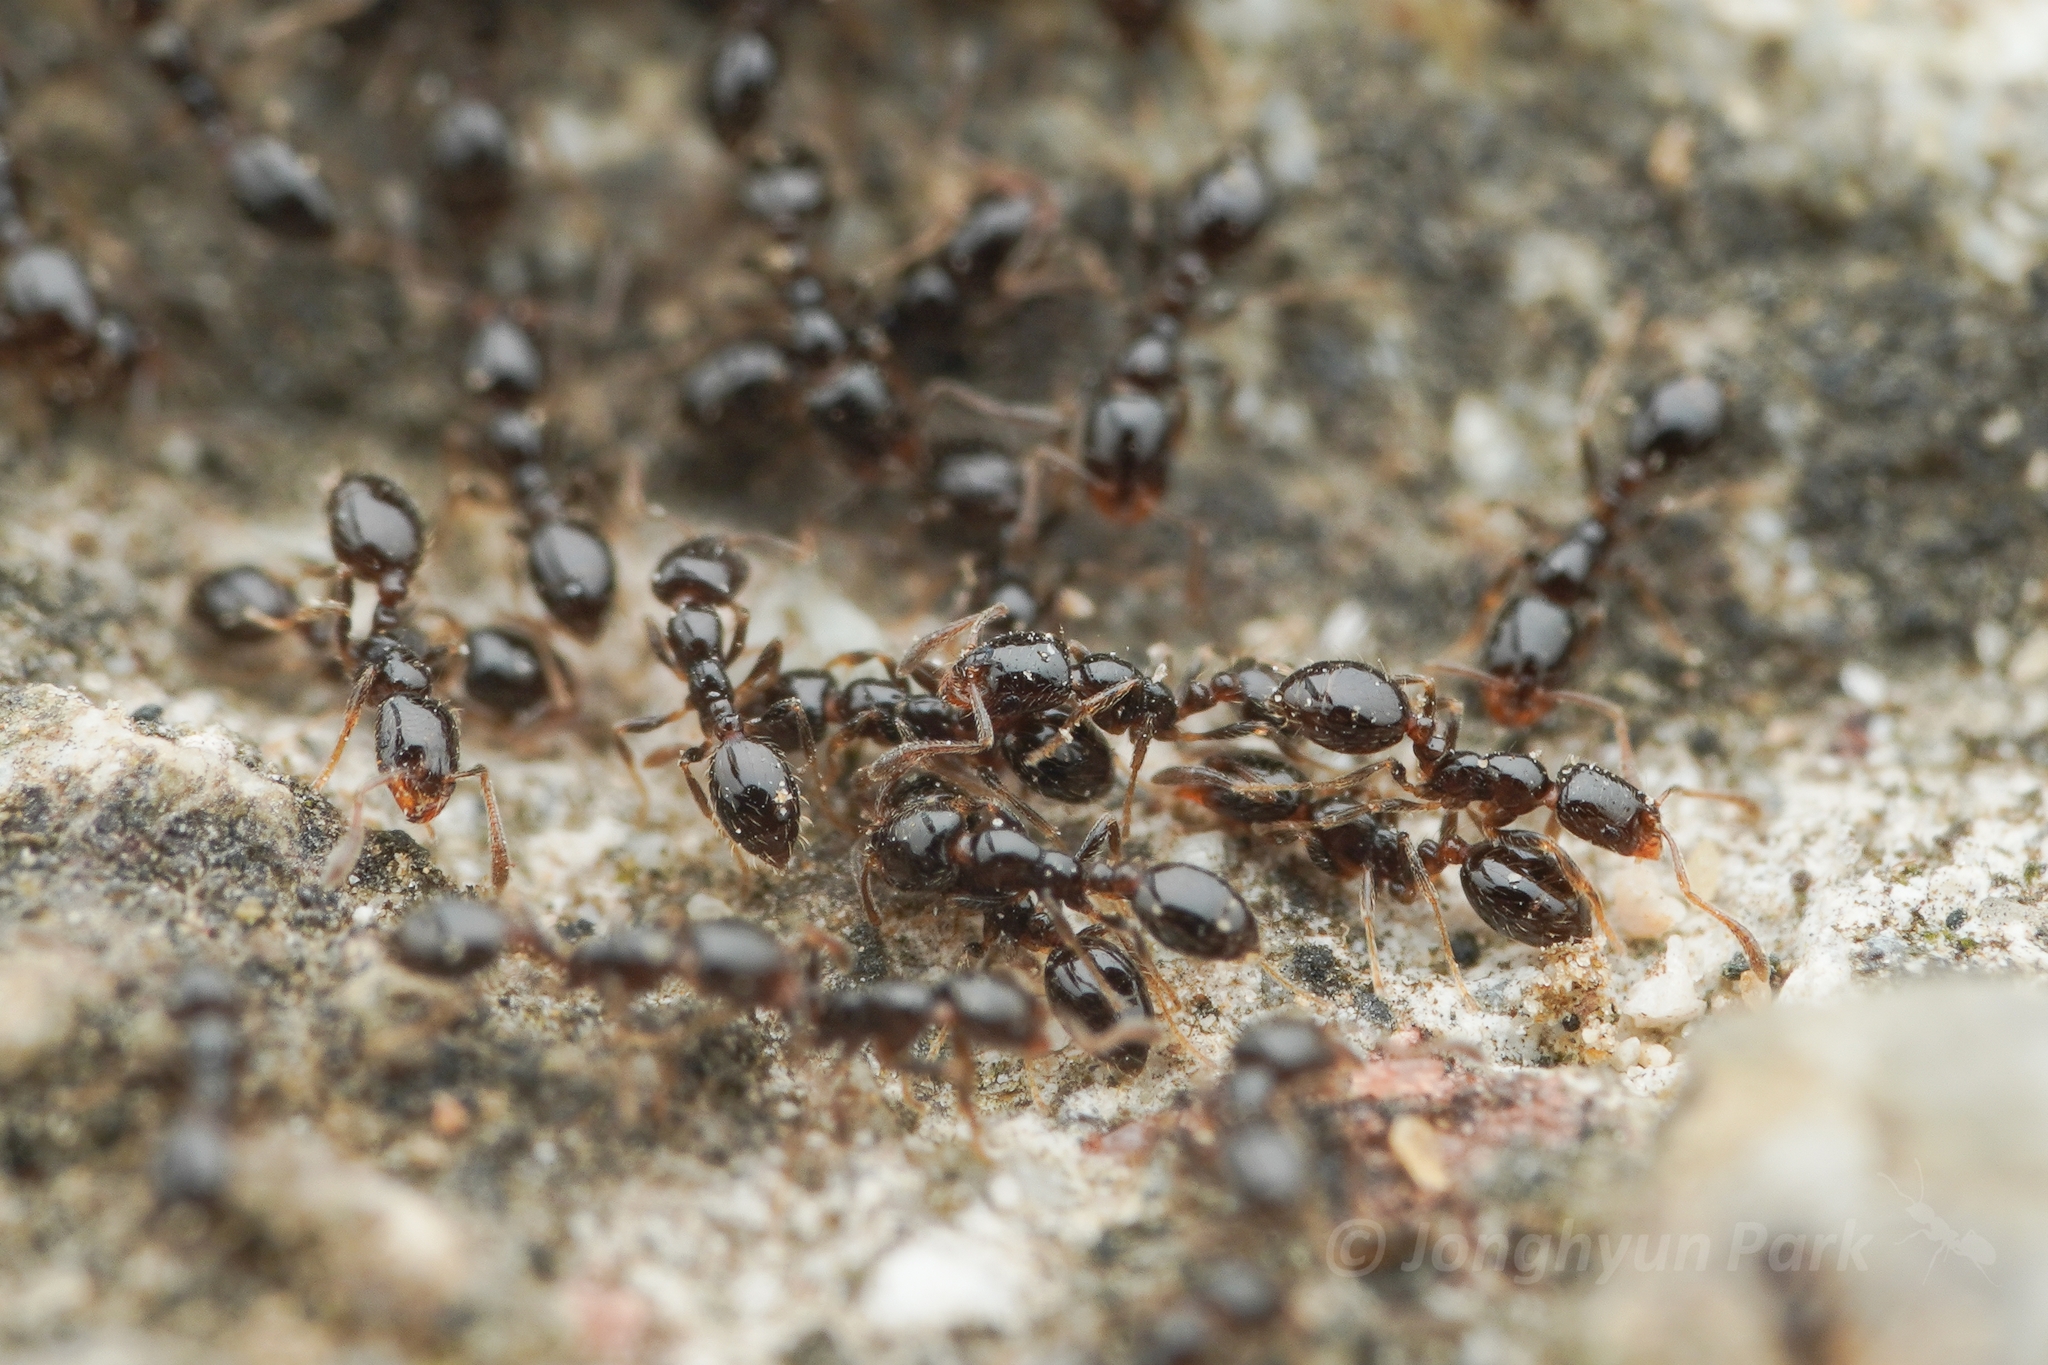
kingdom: Animalia
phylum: Arthropoda
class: Insecta
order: Hymenoptera
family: Formicidae
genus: Monomorium
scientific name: Monomorium chinense
